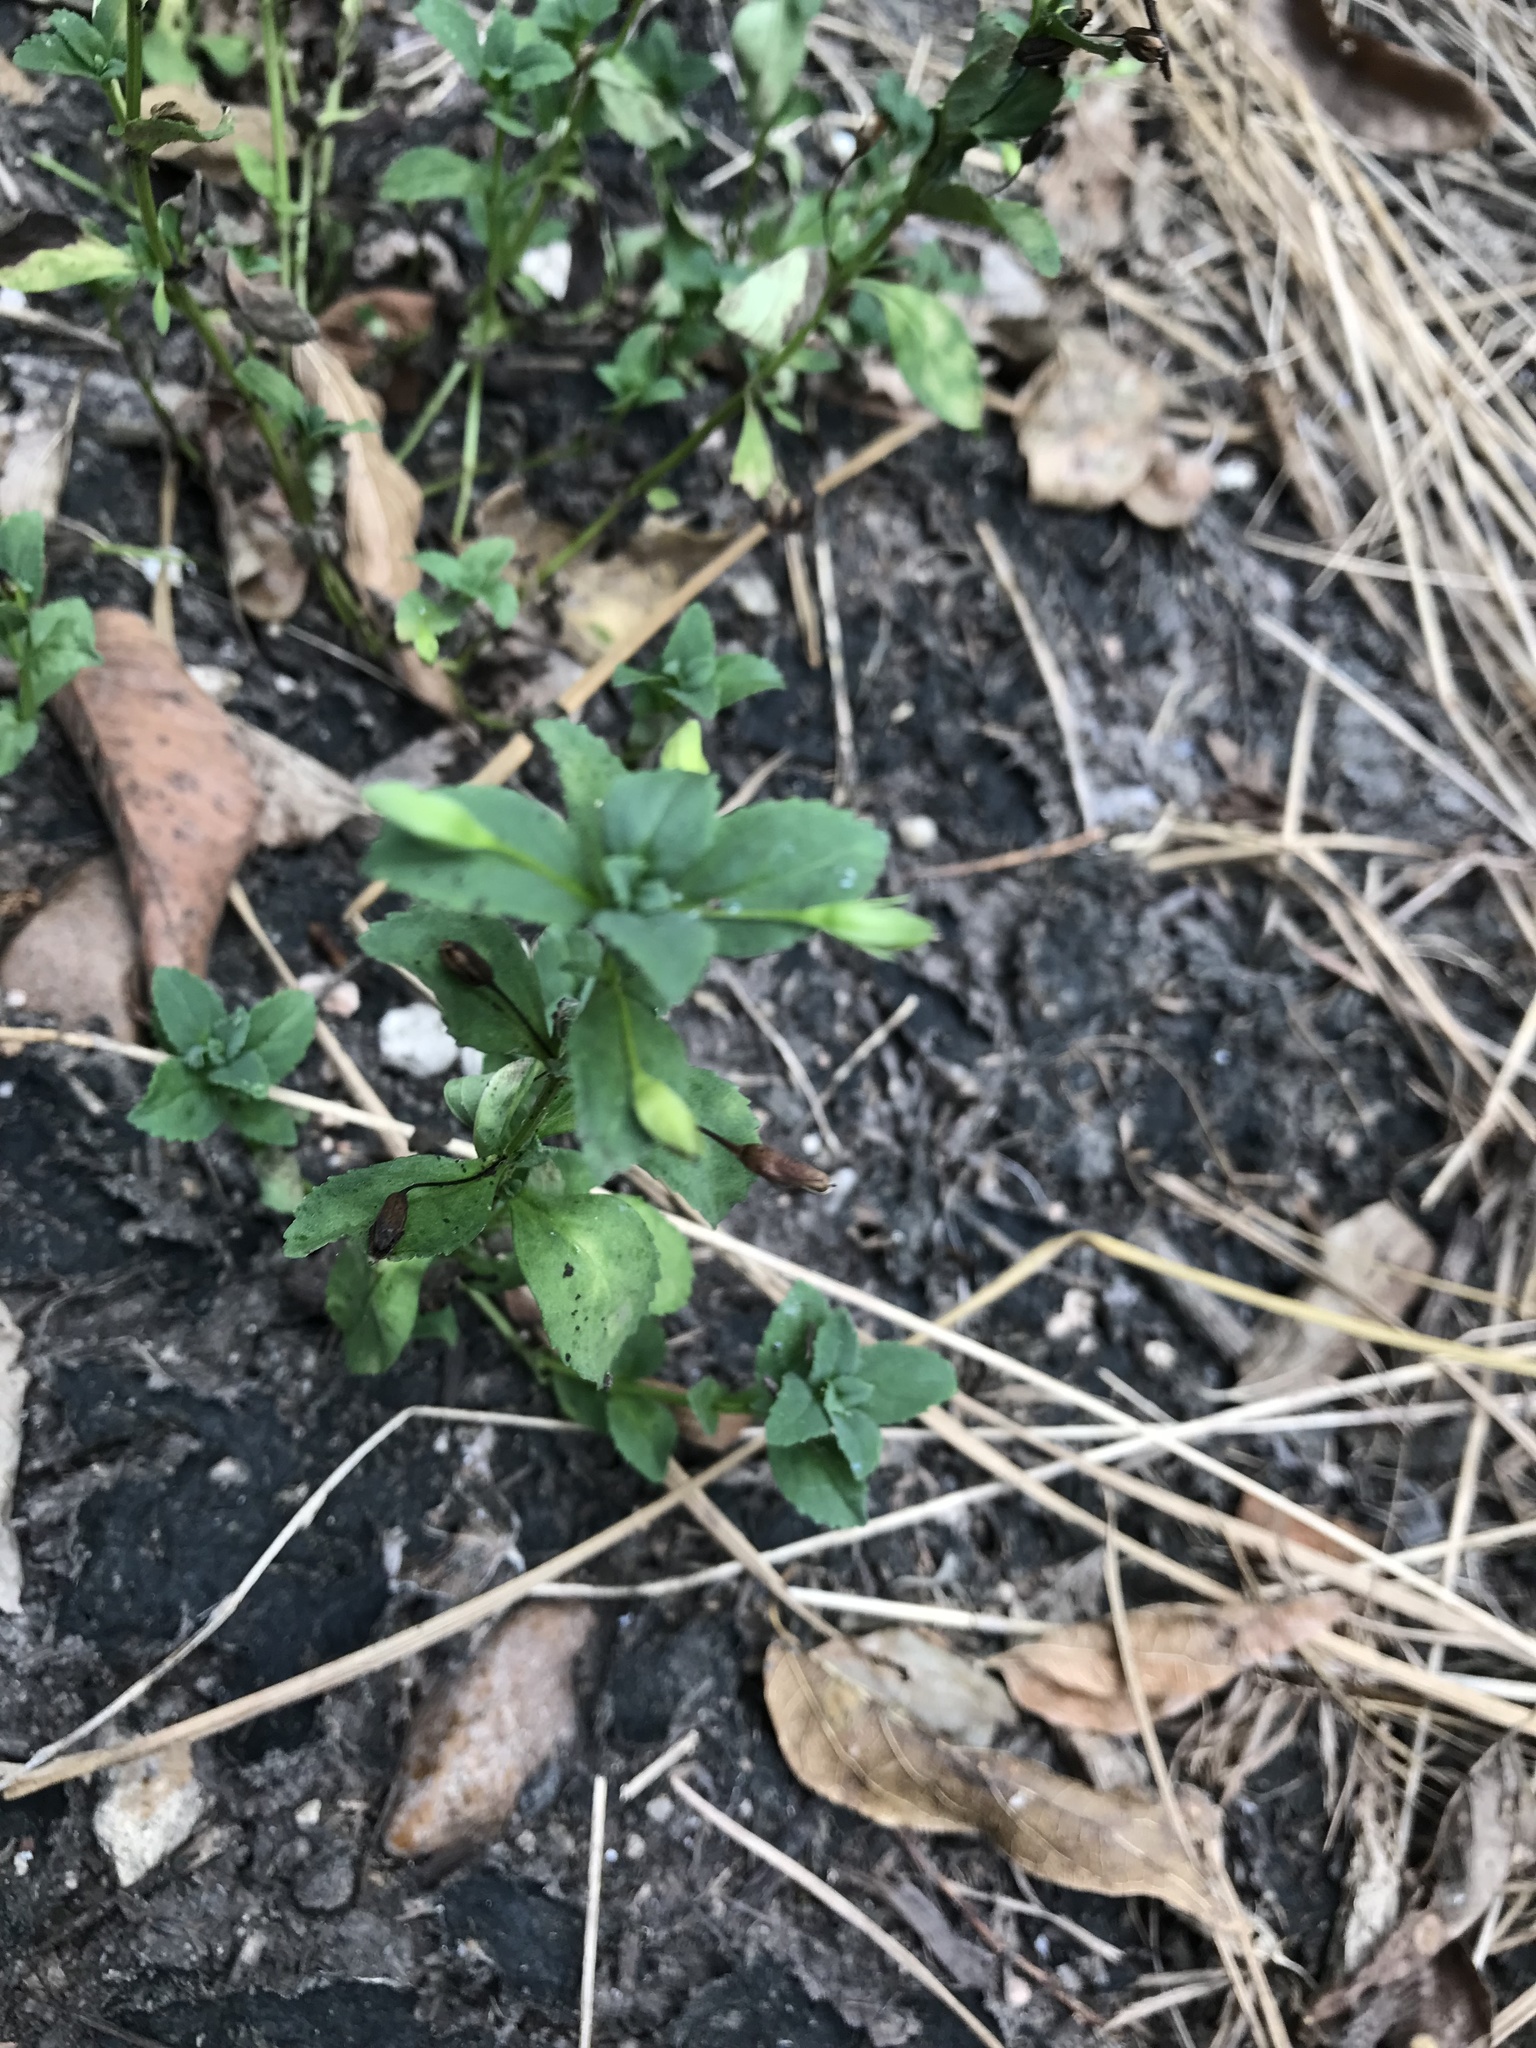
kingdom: Plantae
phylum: Tracheophyta
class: Magnoliopsida
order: Lamiales
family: Plantaginaceae
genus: Mecardonia
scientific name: Mecardonia procumbens
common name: Baby jump-up
